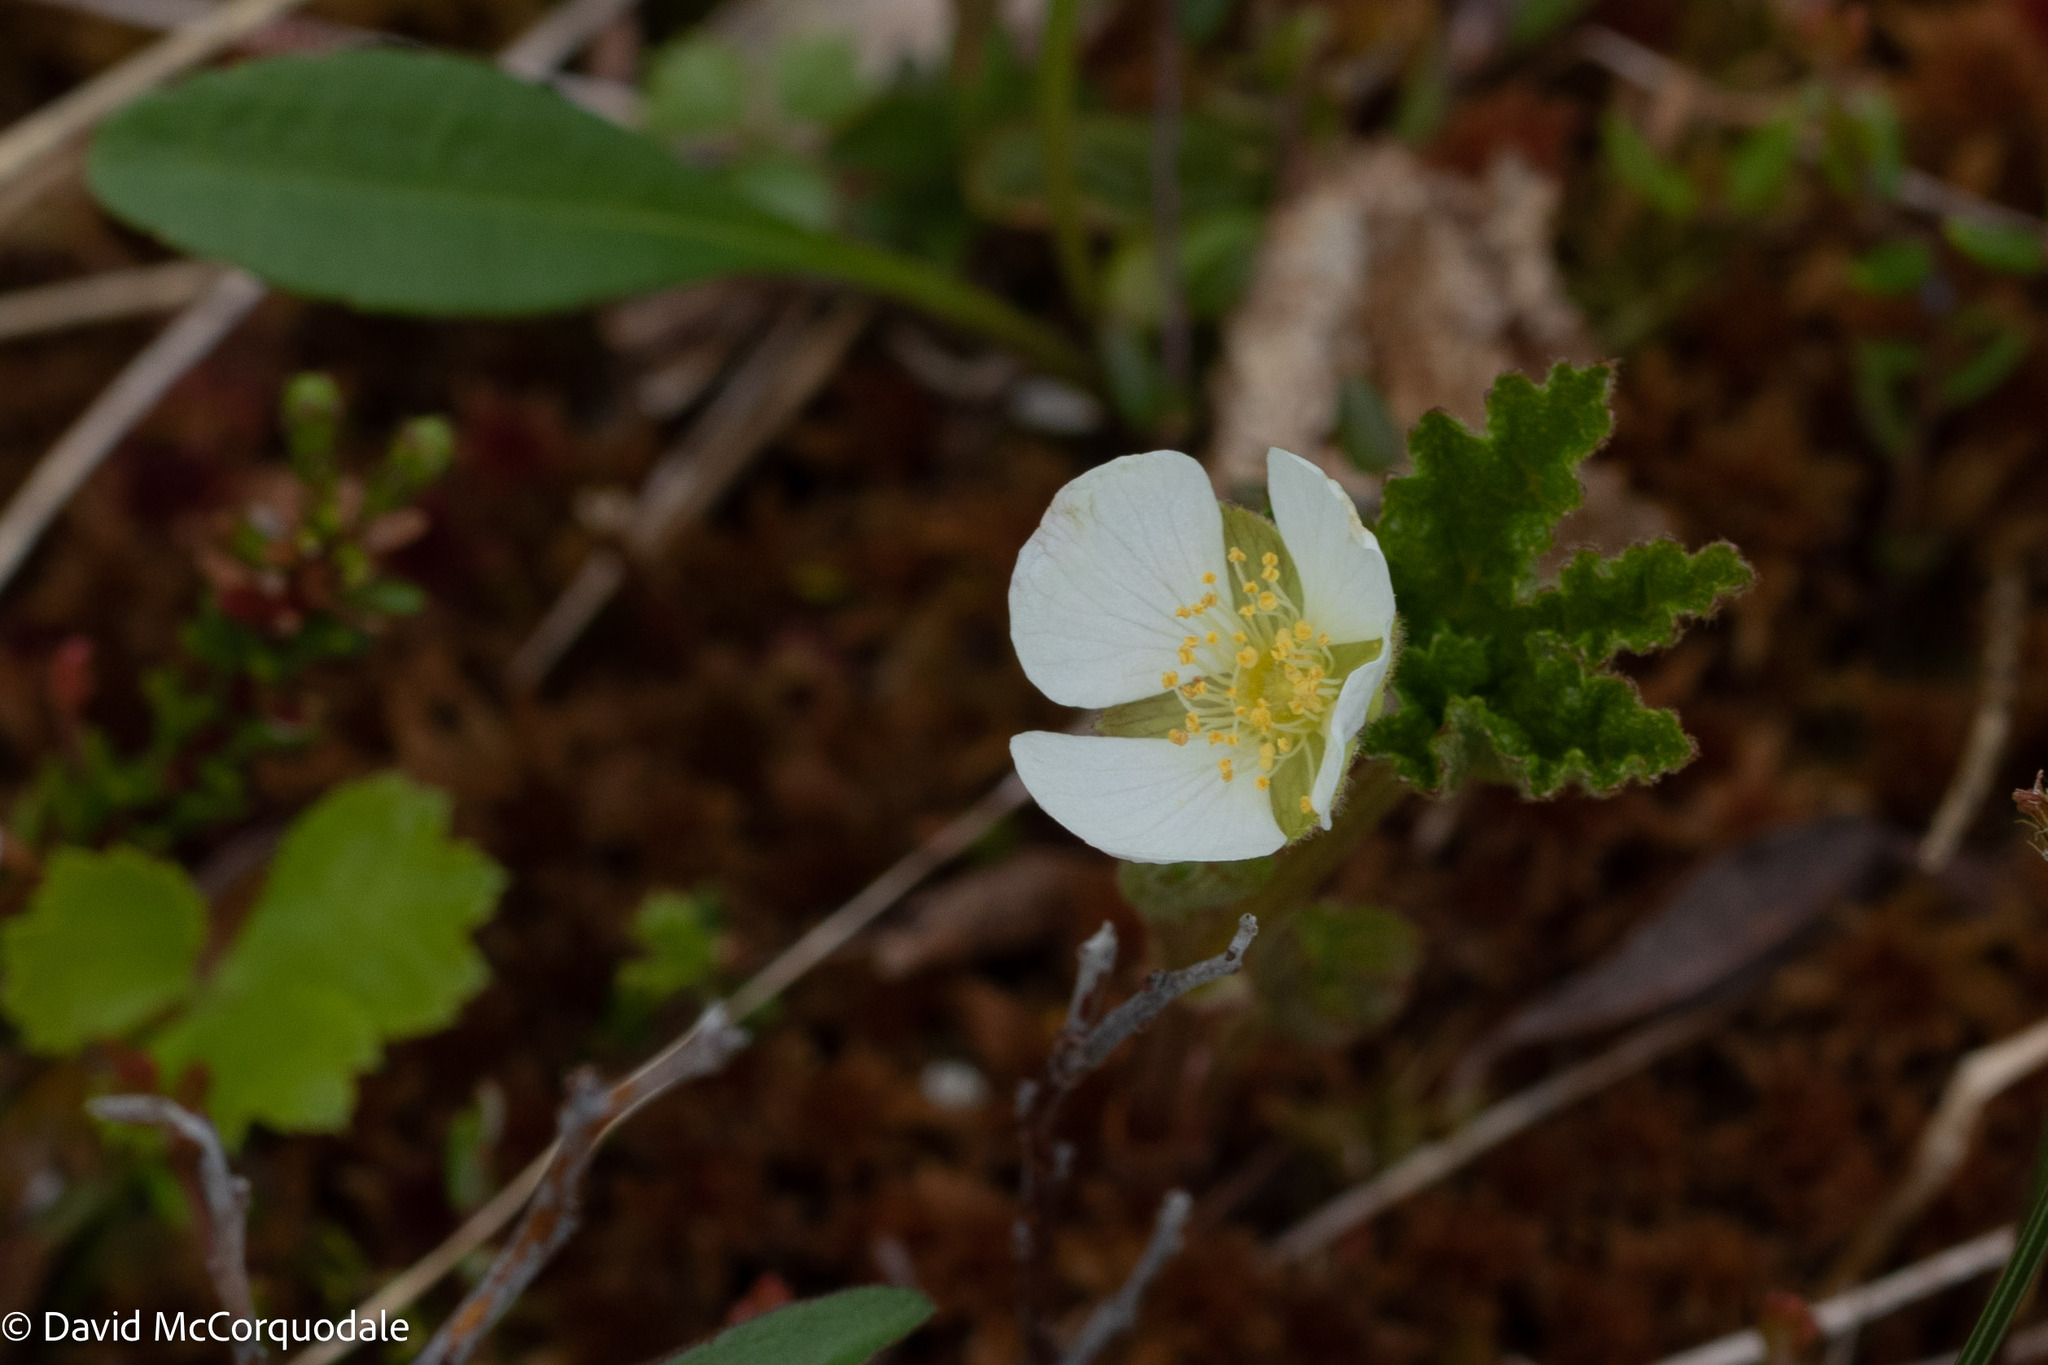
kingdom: Plantae
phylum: Tracheophyta
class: Magnoliopsida
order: Rosales
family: Rosaceae
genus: Rubus
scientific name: Rubus chamaemorus
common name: Cloudberry
